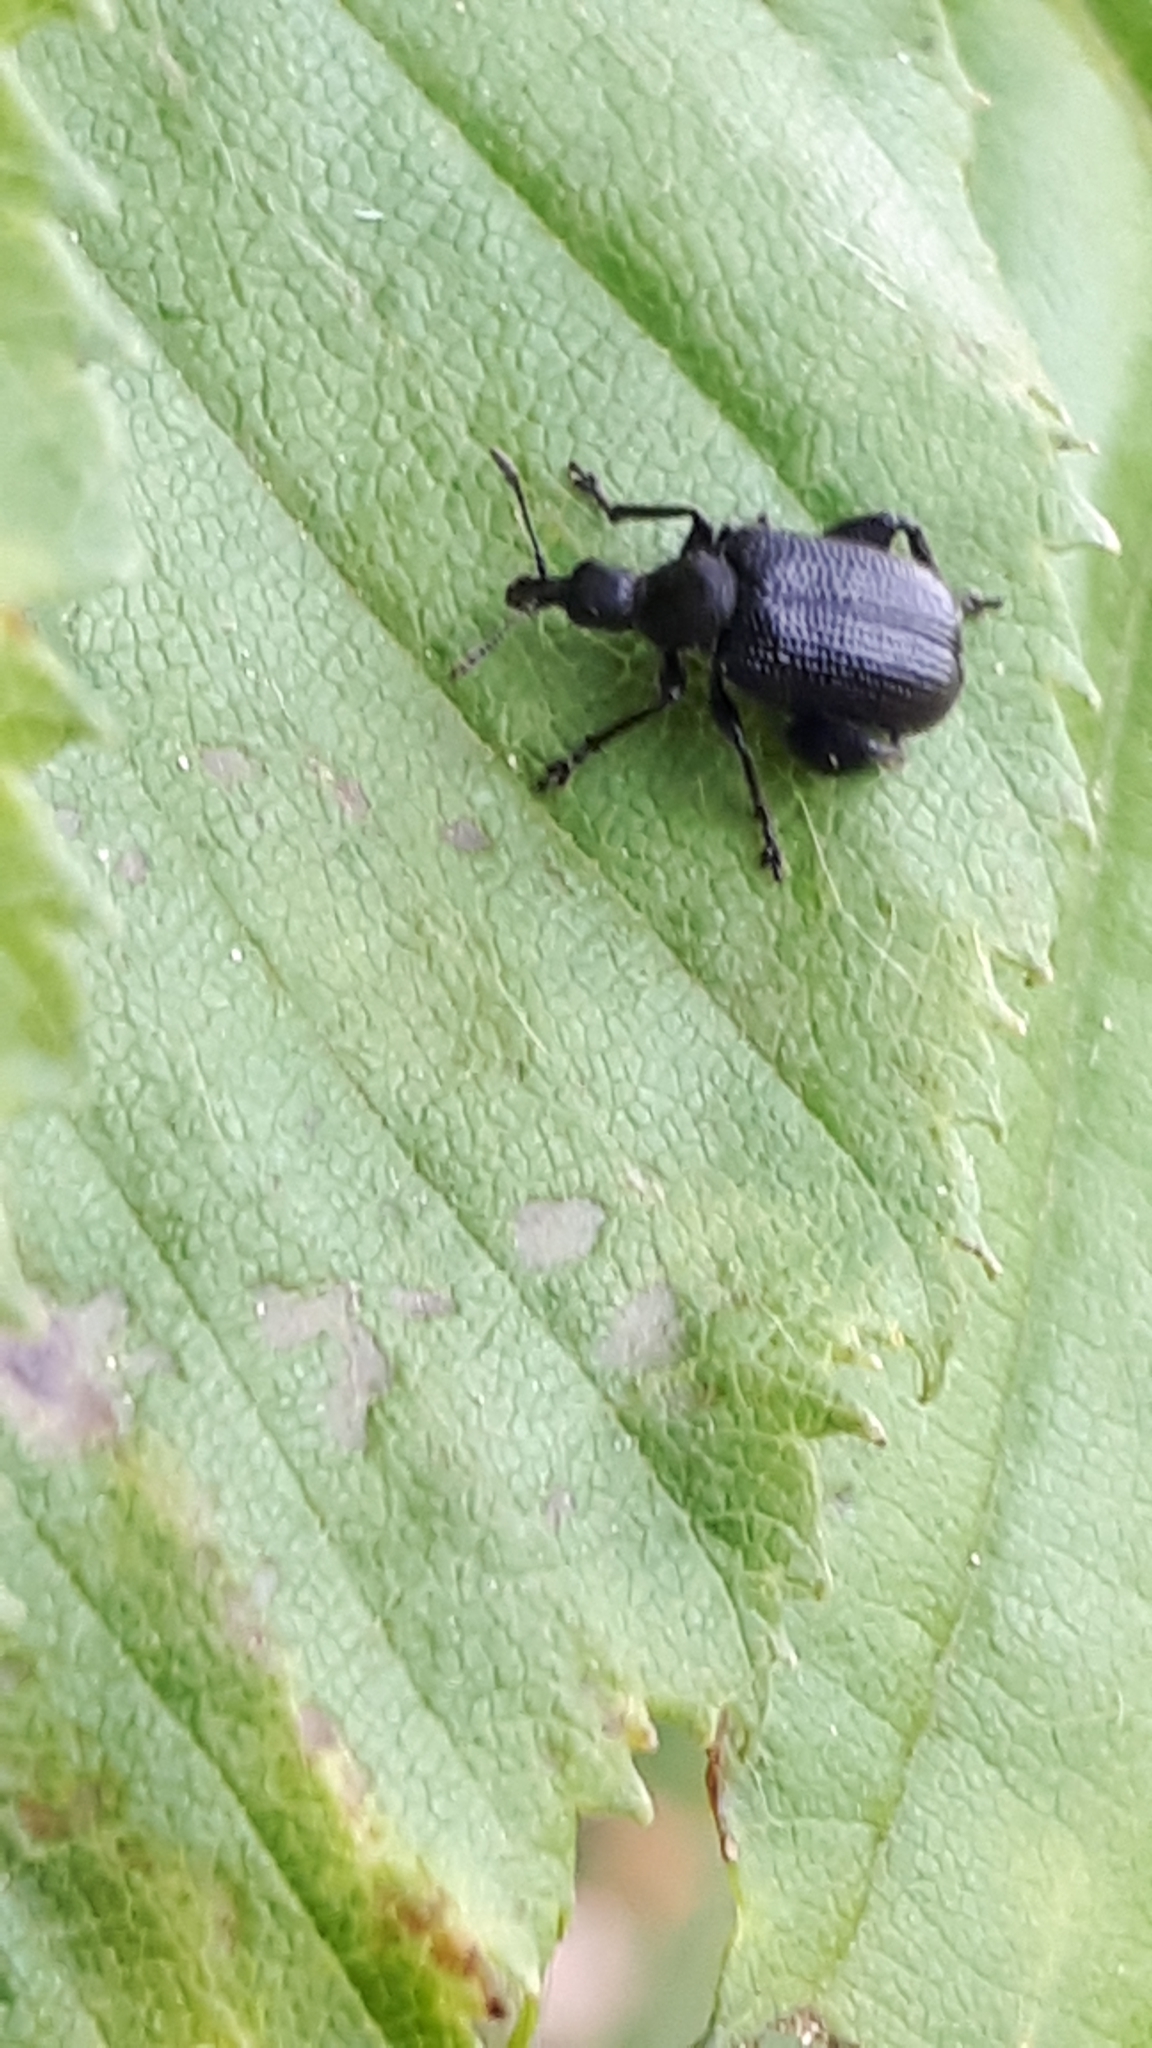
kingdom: Animalia
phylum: Arthropoda
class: Insecta
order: Coleoptera
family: Attelabidae
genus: Deporaus
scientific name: Deporaus betulae
